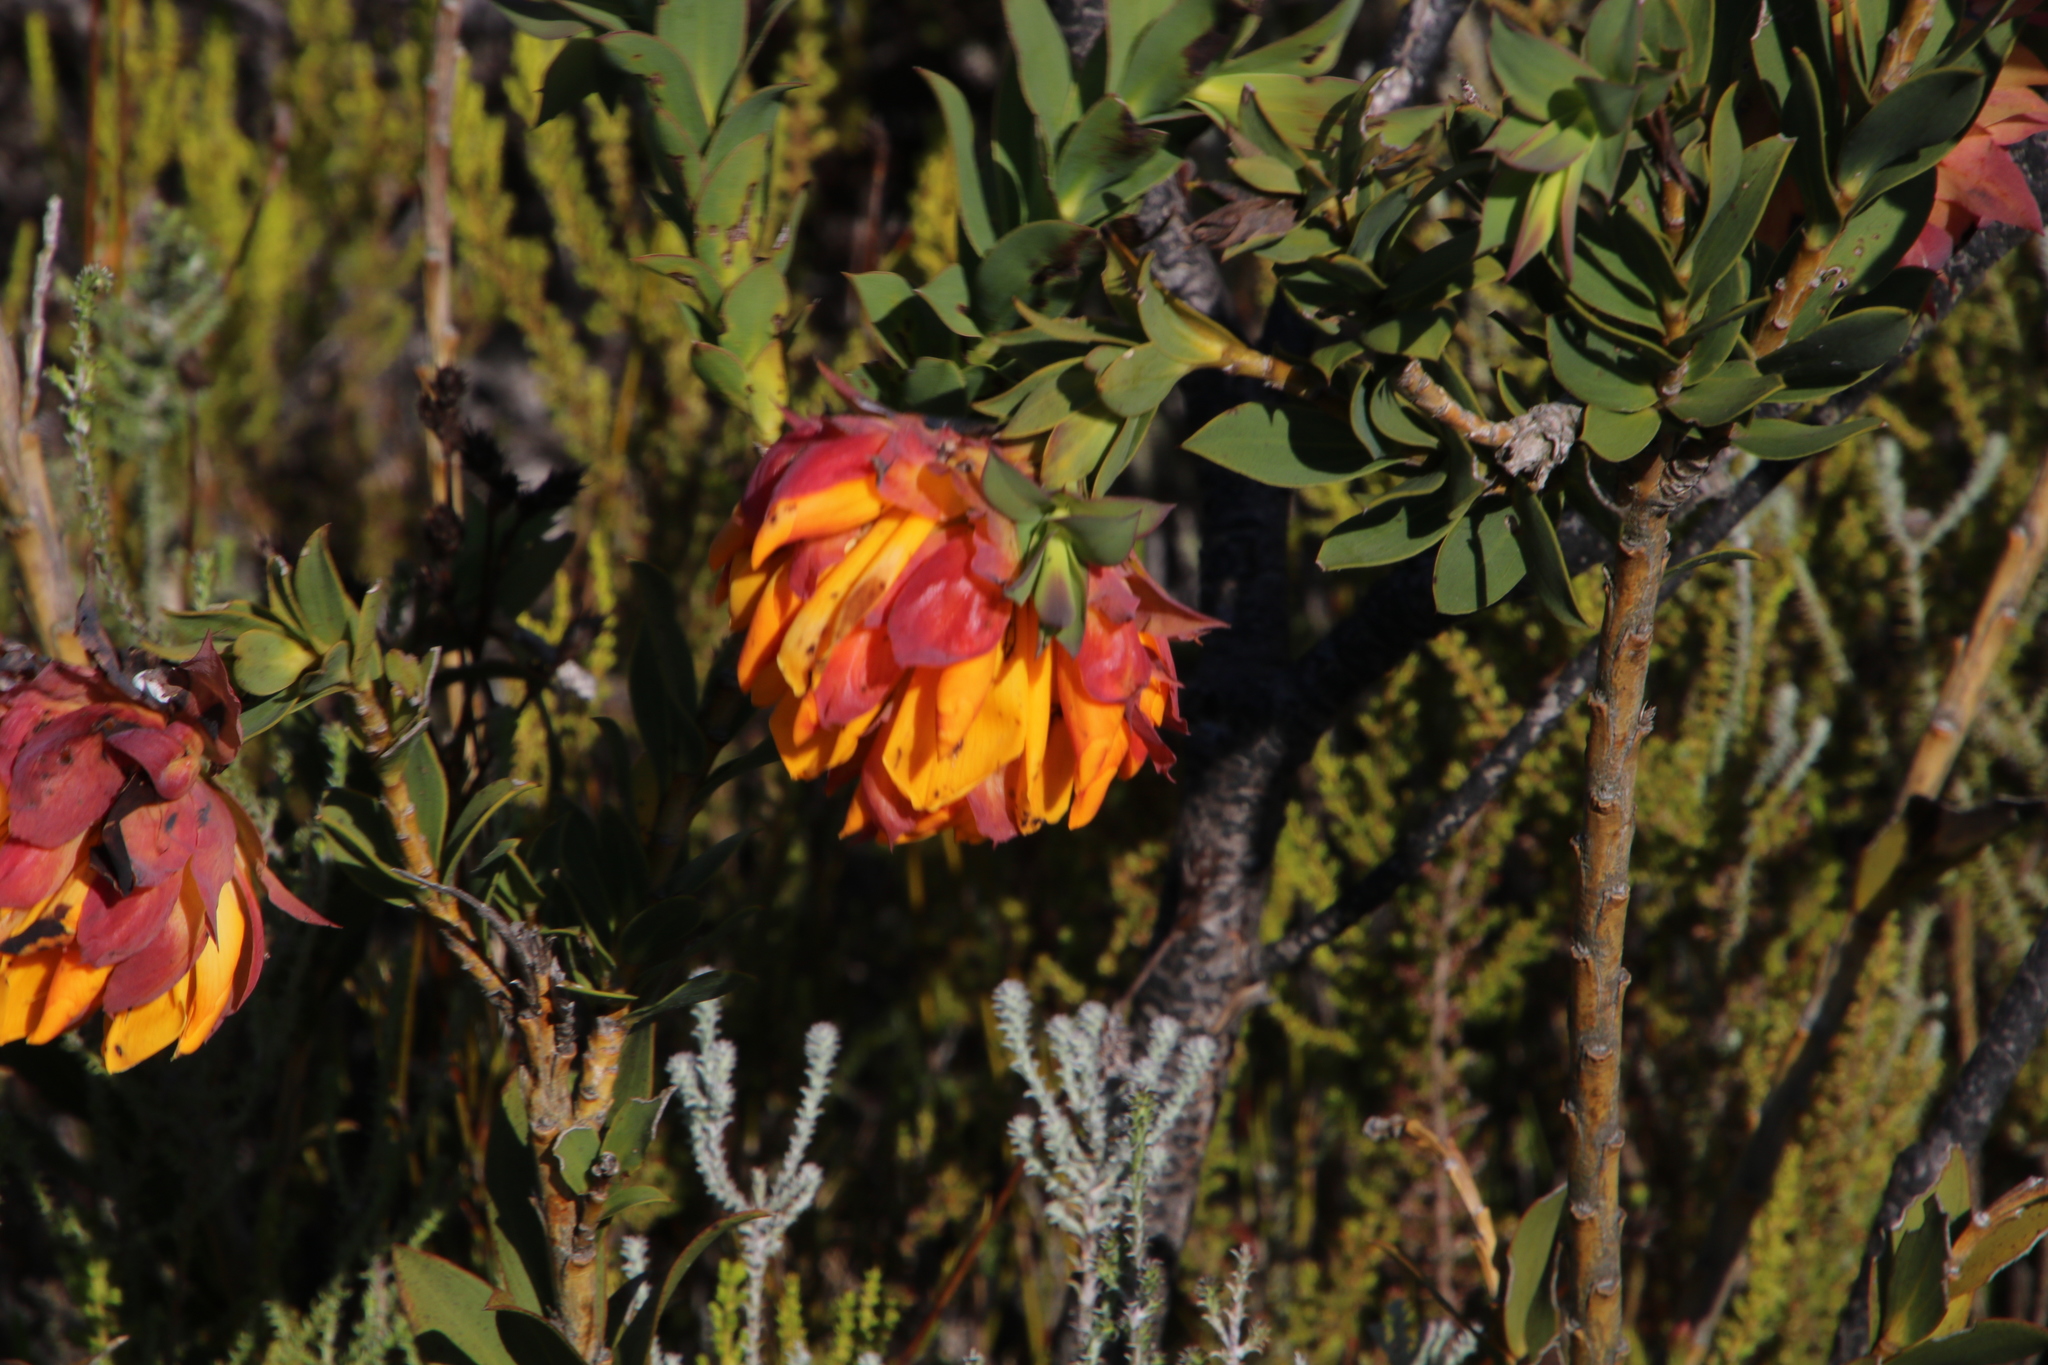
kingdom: Plantae
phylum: Tracheophyta
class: Magnoliopsida
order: Fabales
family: Fabaceae
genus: Liparia
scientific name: Liparia splendens
